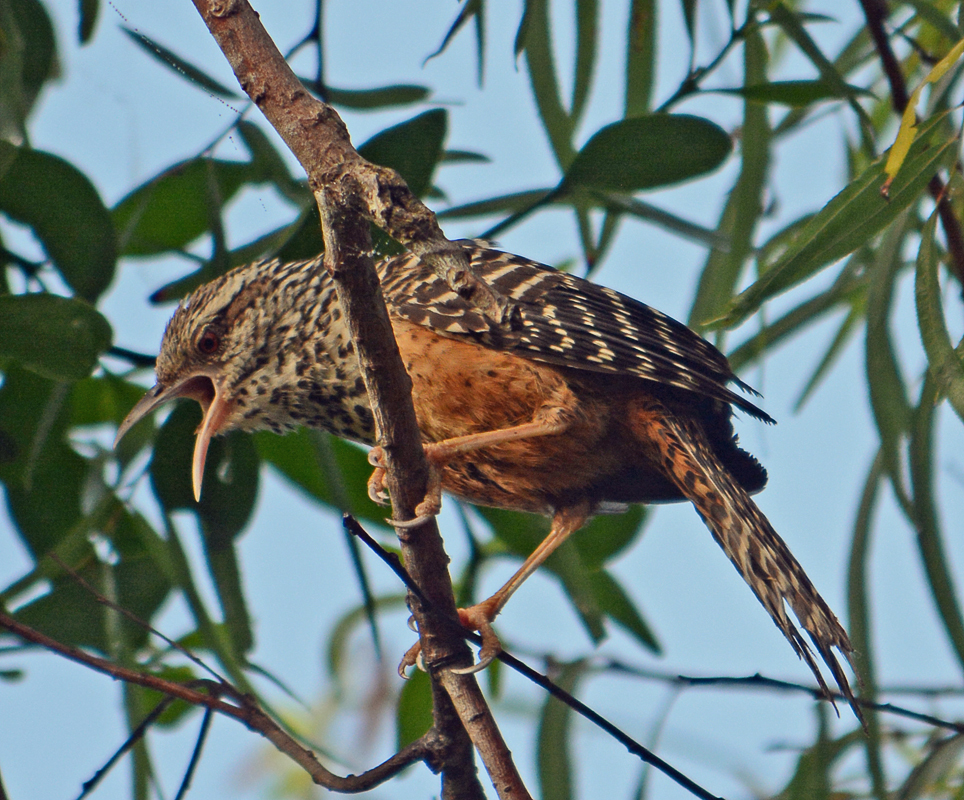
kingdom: Animalia
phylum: Chordata
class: Aves
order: Passeriformes
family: Troglodytidae
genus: Campylorhynchus
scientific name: Campylorhynchus zonatus
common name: Band-backed wren
